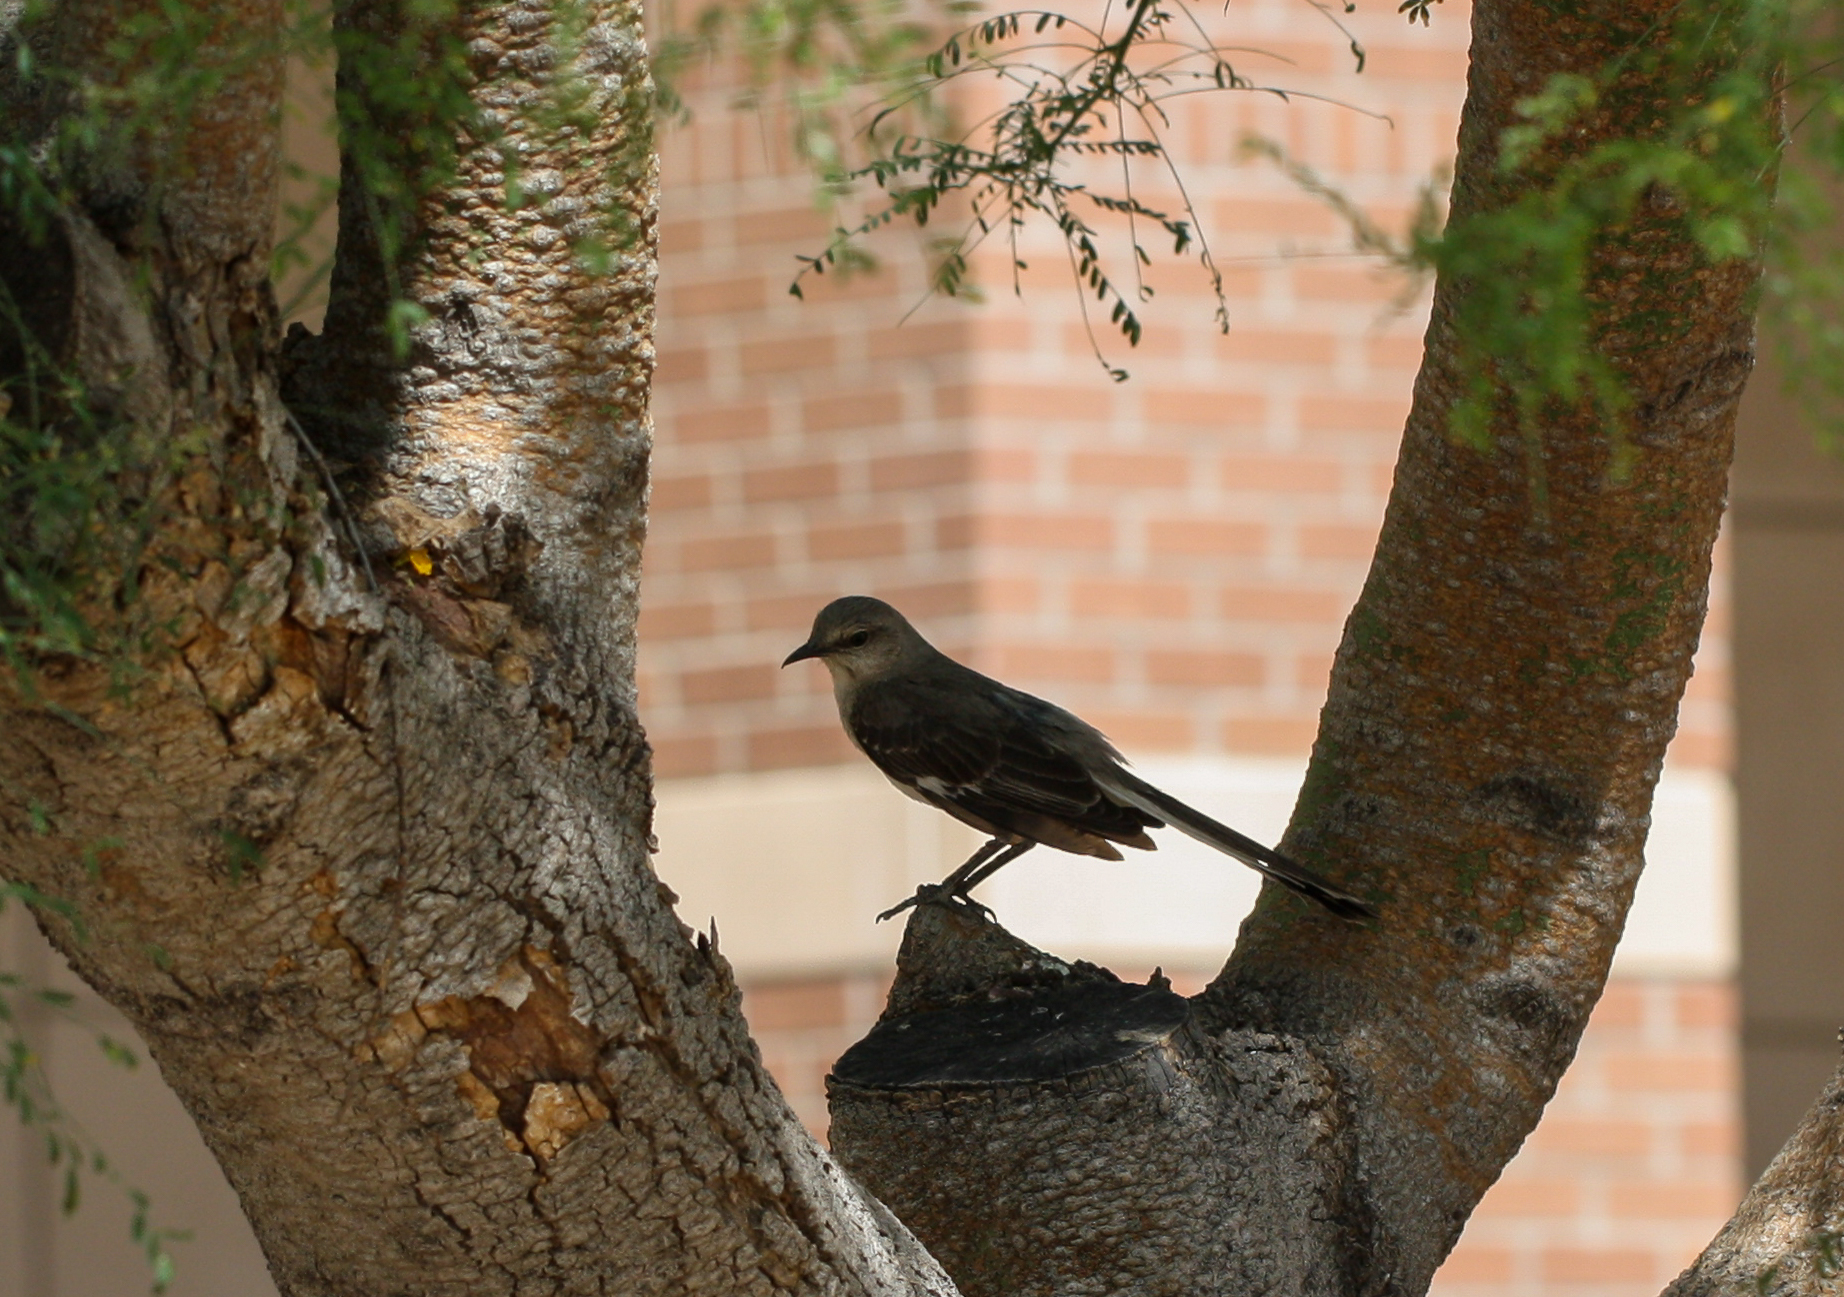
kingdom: Animalia
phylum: Chordata
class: Aves
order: Passeriformes
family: Mimidae
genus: Mimus
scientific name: Mimus polyglottos
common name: Northern mockingbird
